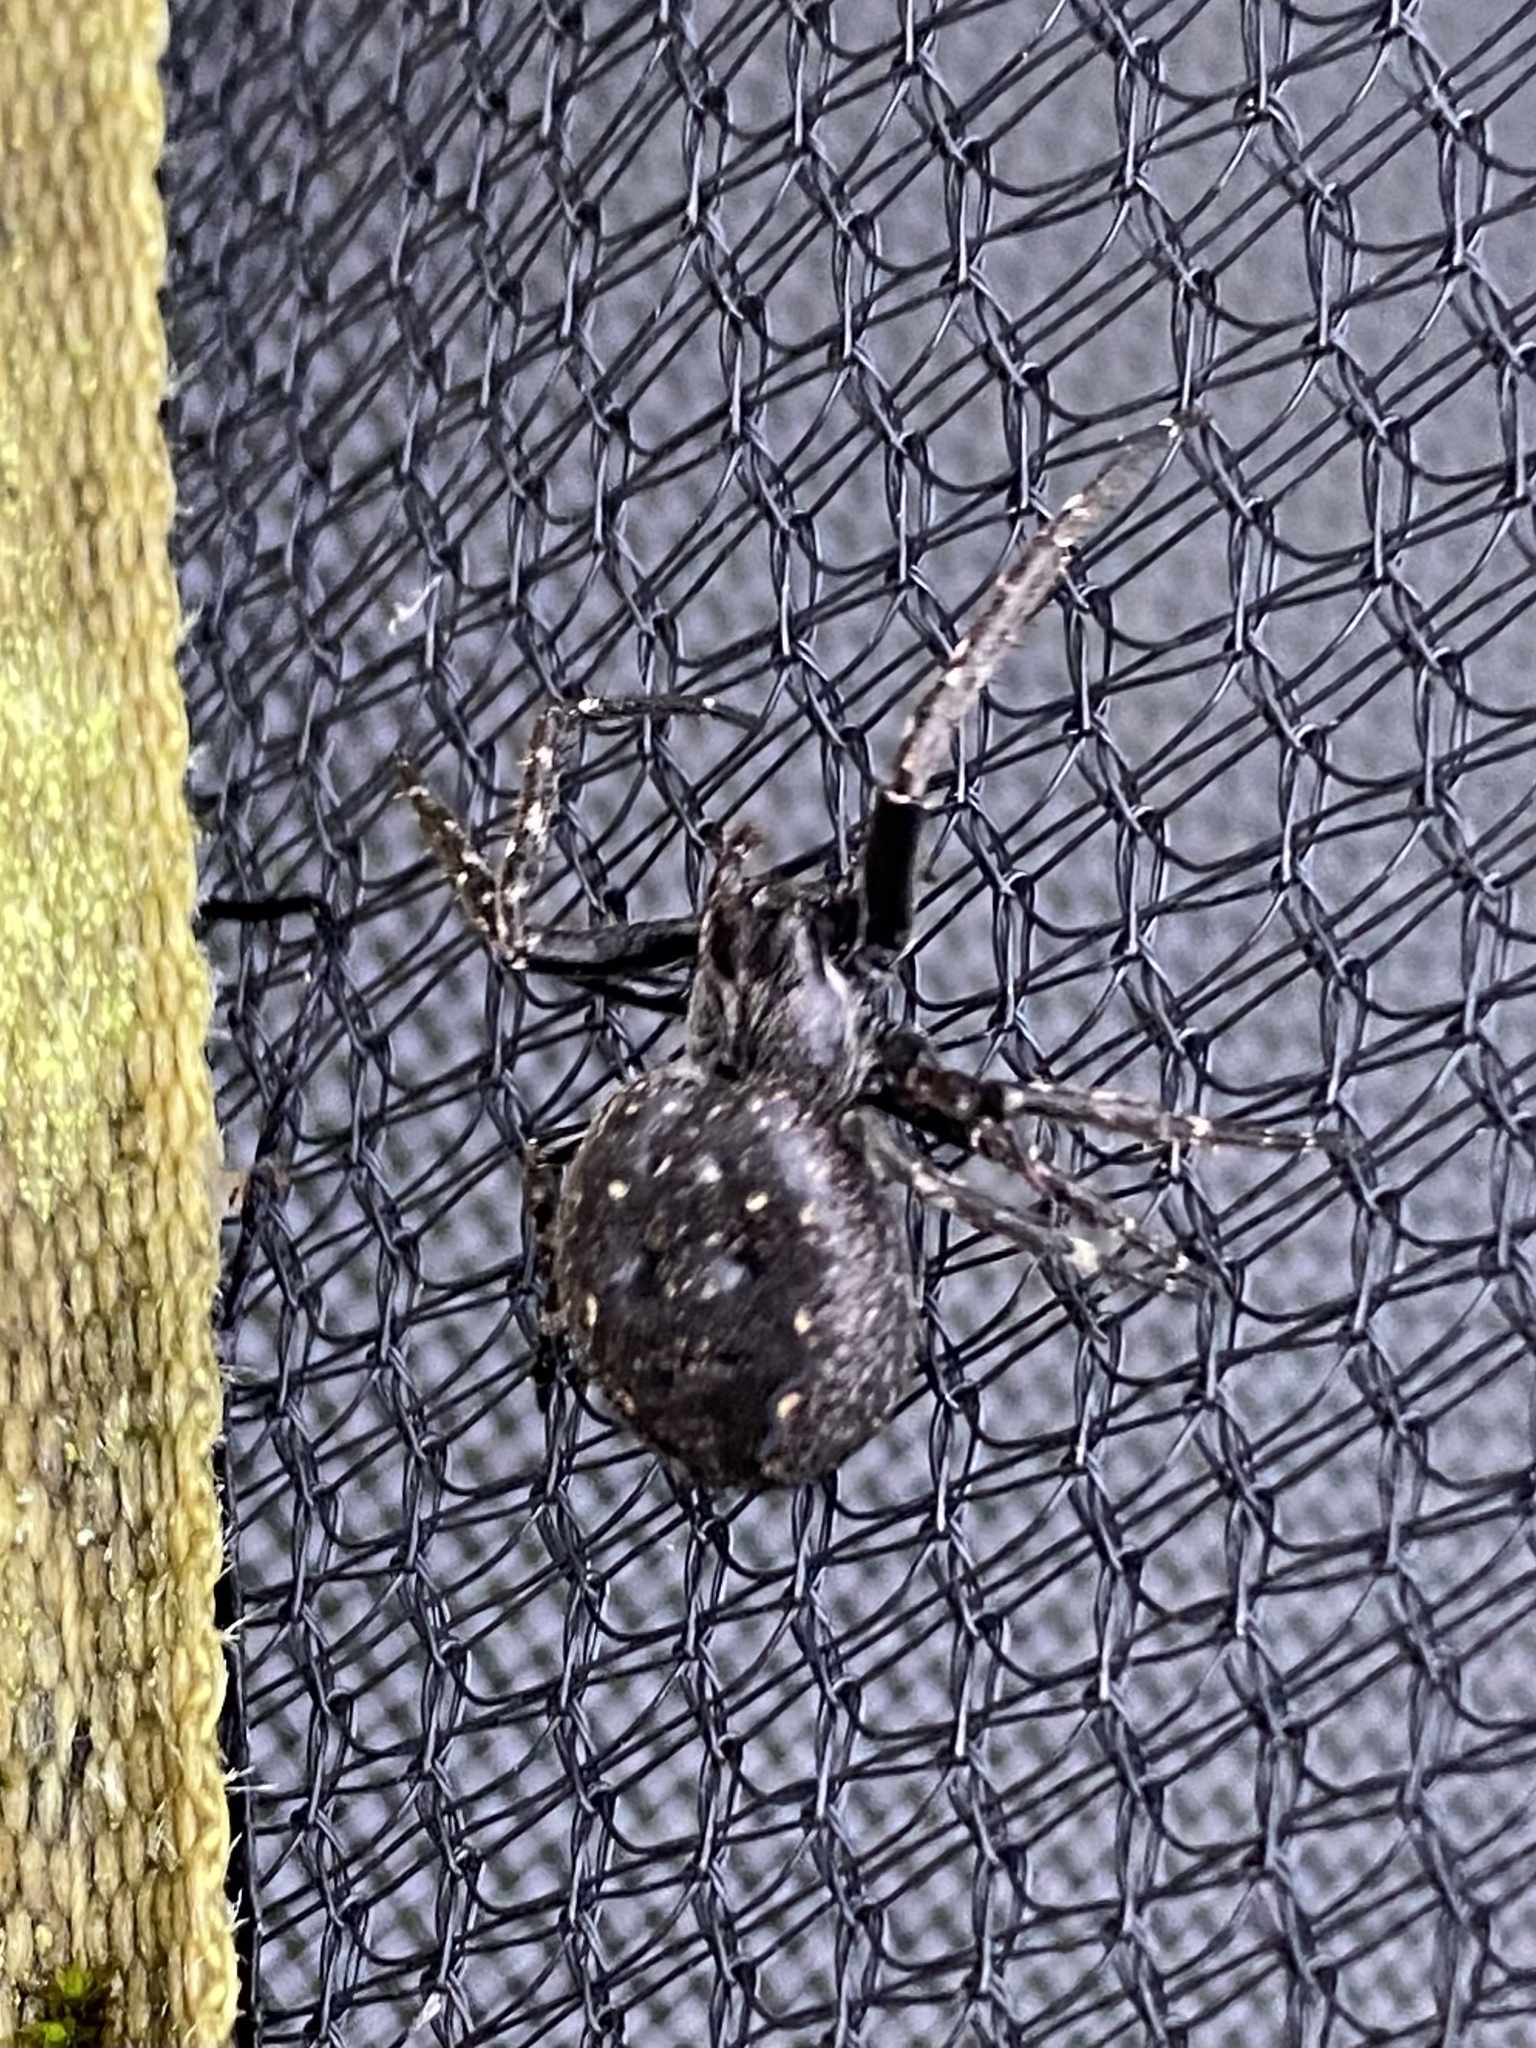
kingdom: Animalia
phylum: Arthropoda
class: Arachnida
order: Araneae
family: Araneidae
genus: Nuctenea
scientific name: Nuctenea umbratica
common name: Toad spider
